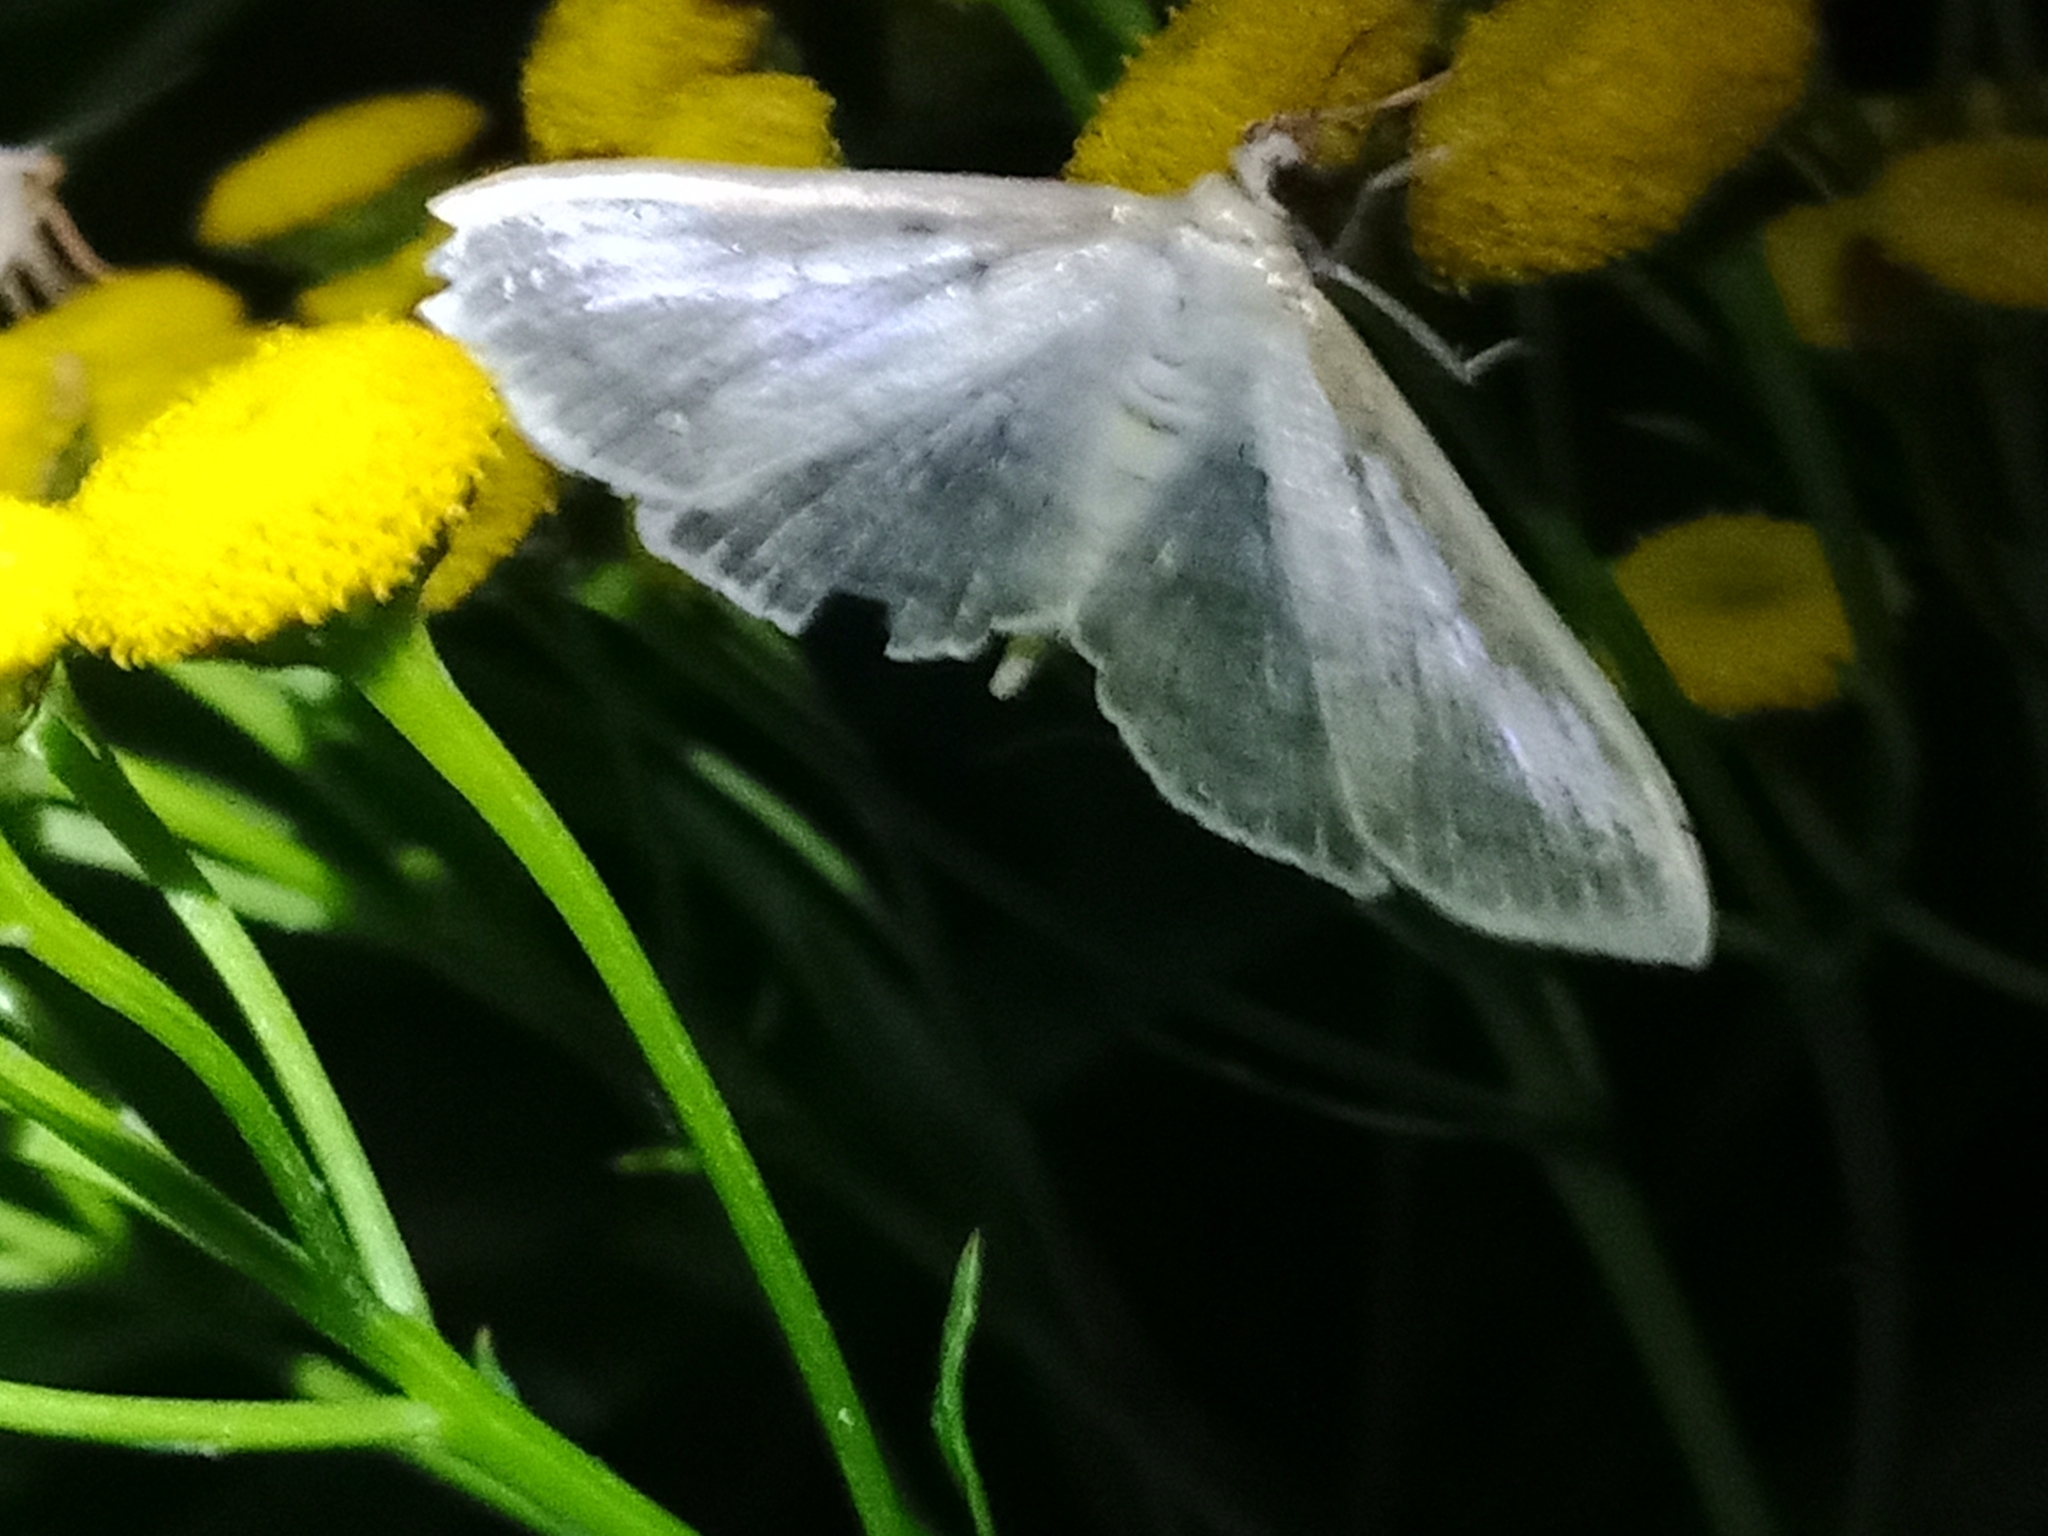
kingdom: Animalia
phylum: Arthropoda
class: Insecta
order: Lepidoptera
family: Crambidae
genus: Patania
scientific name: Patania ruralis
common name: Mother of pearl
